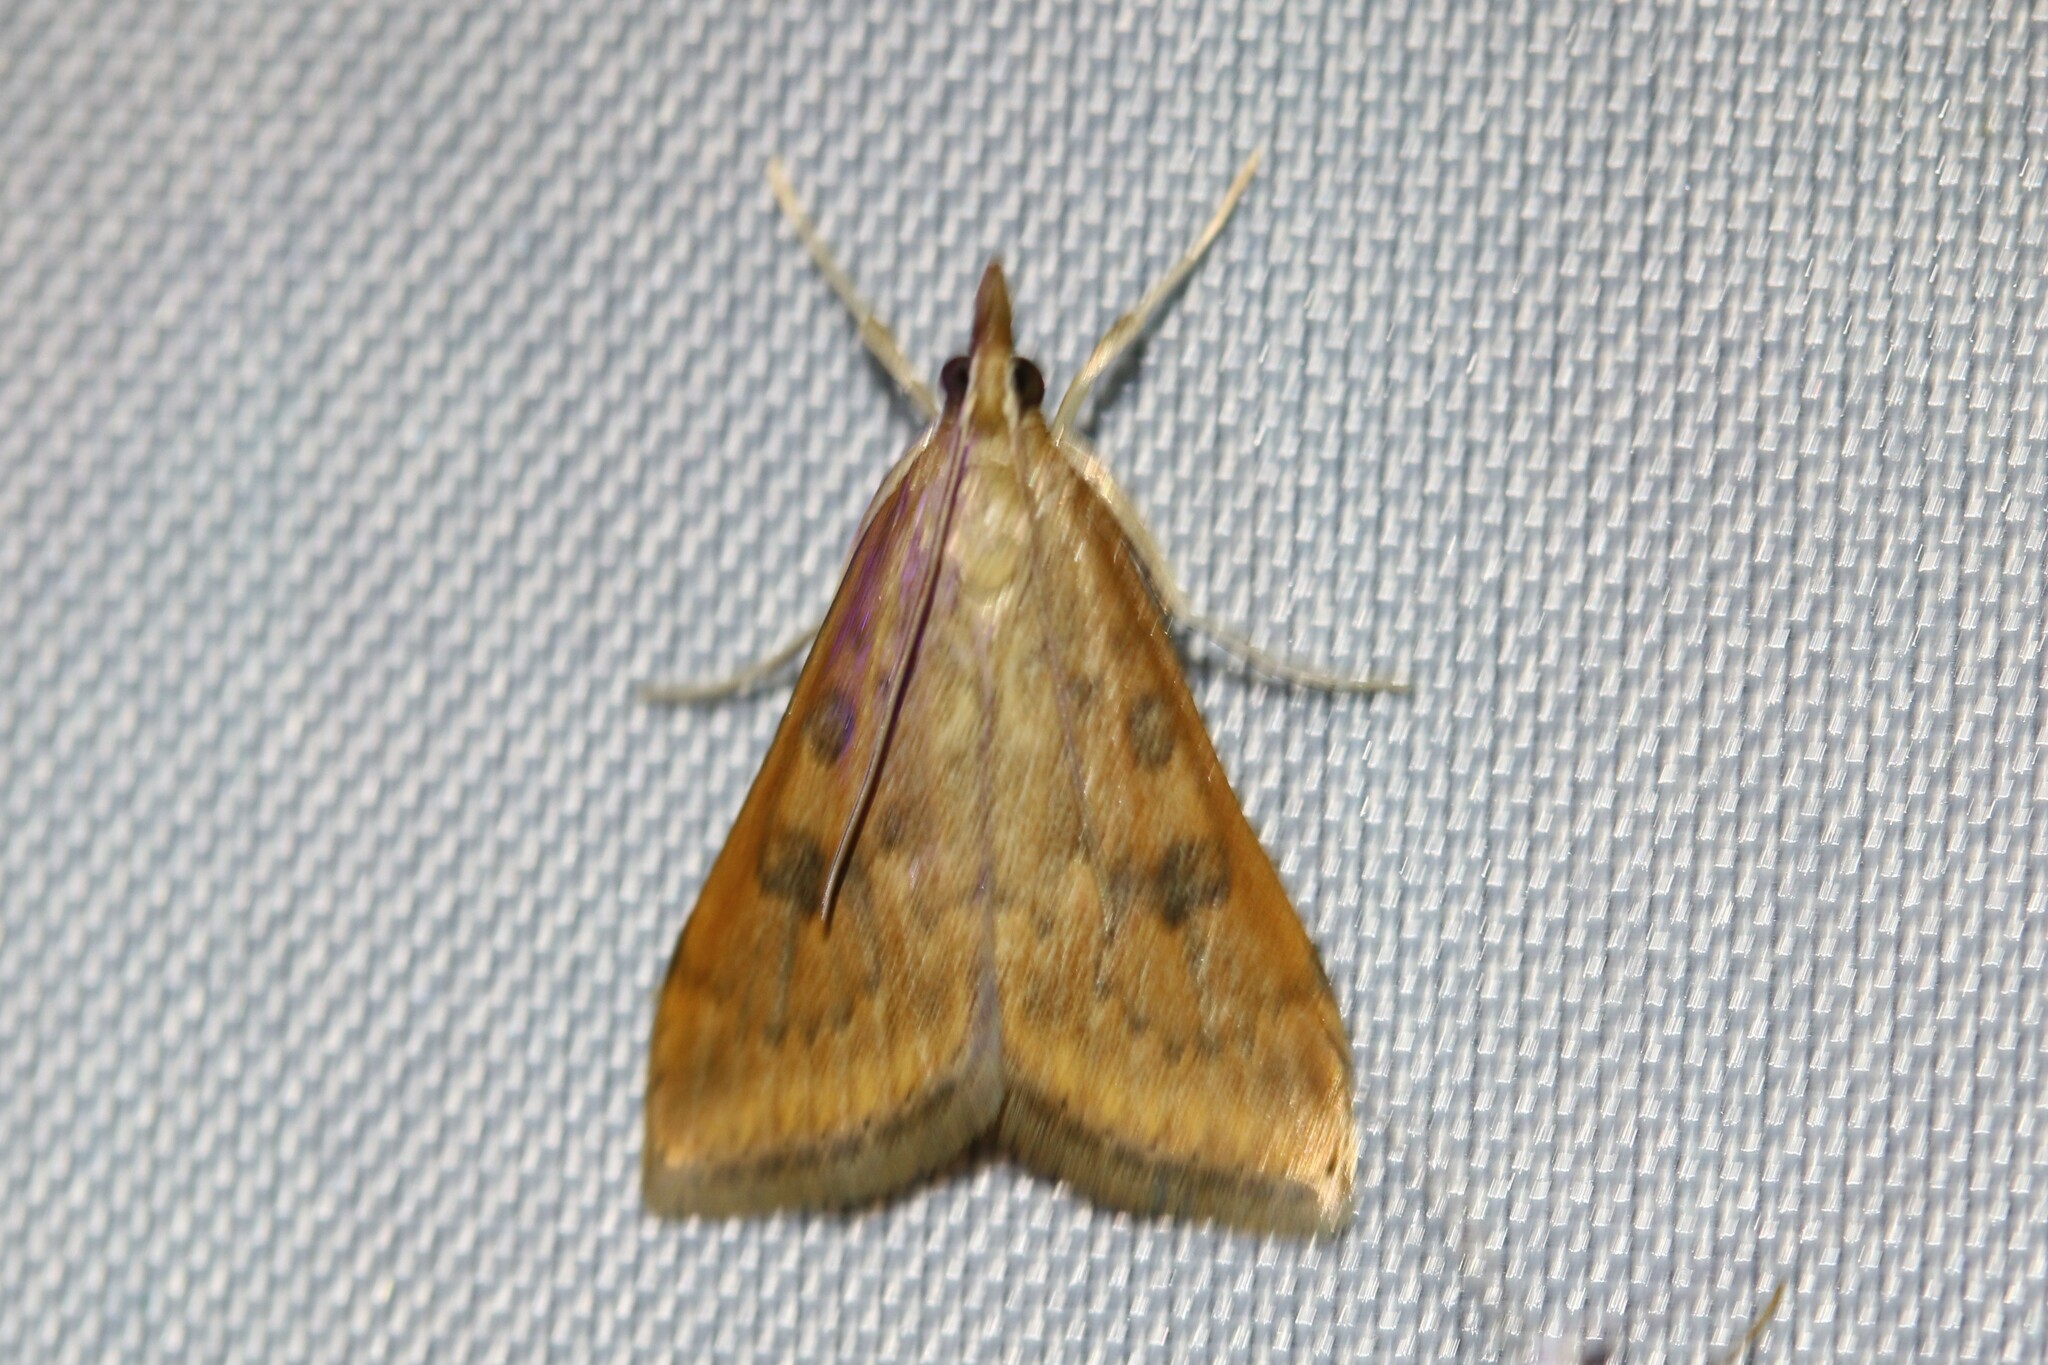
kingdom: Animalia
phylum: Arthropoda
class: Insecta
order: Lepidoptera
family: Crambidae
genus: Udea
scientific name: Udea ferrugalis
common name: Rusty dot
